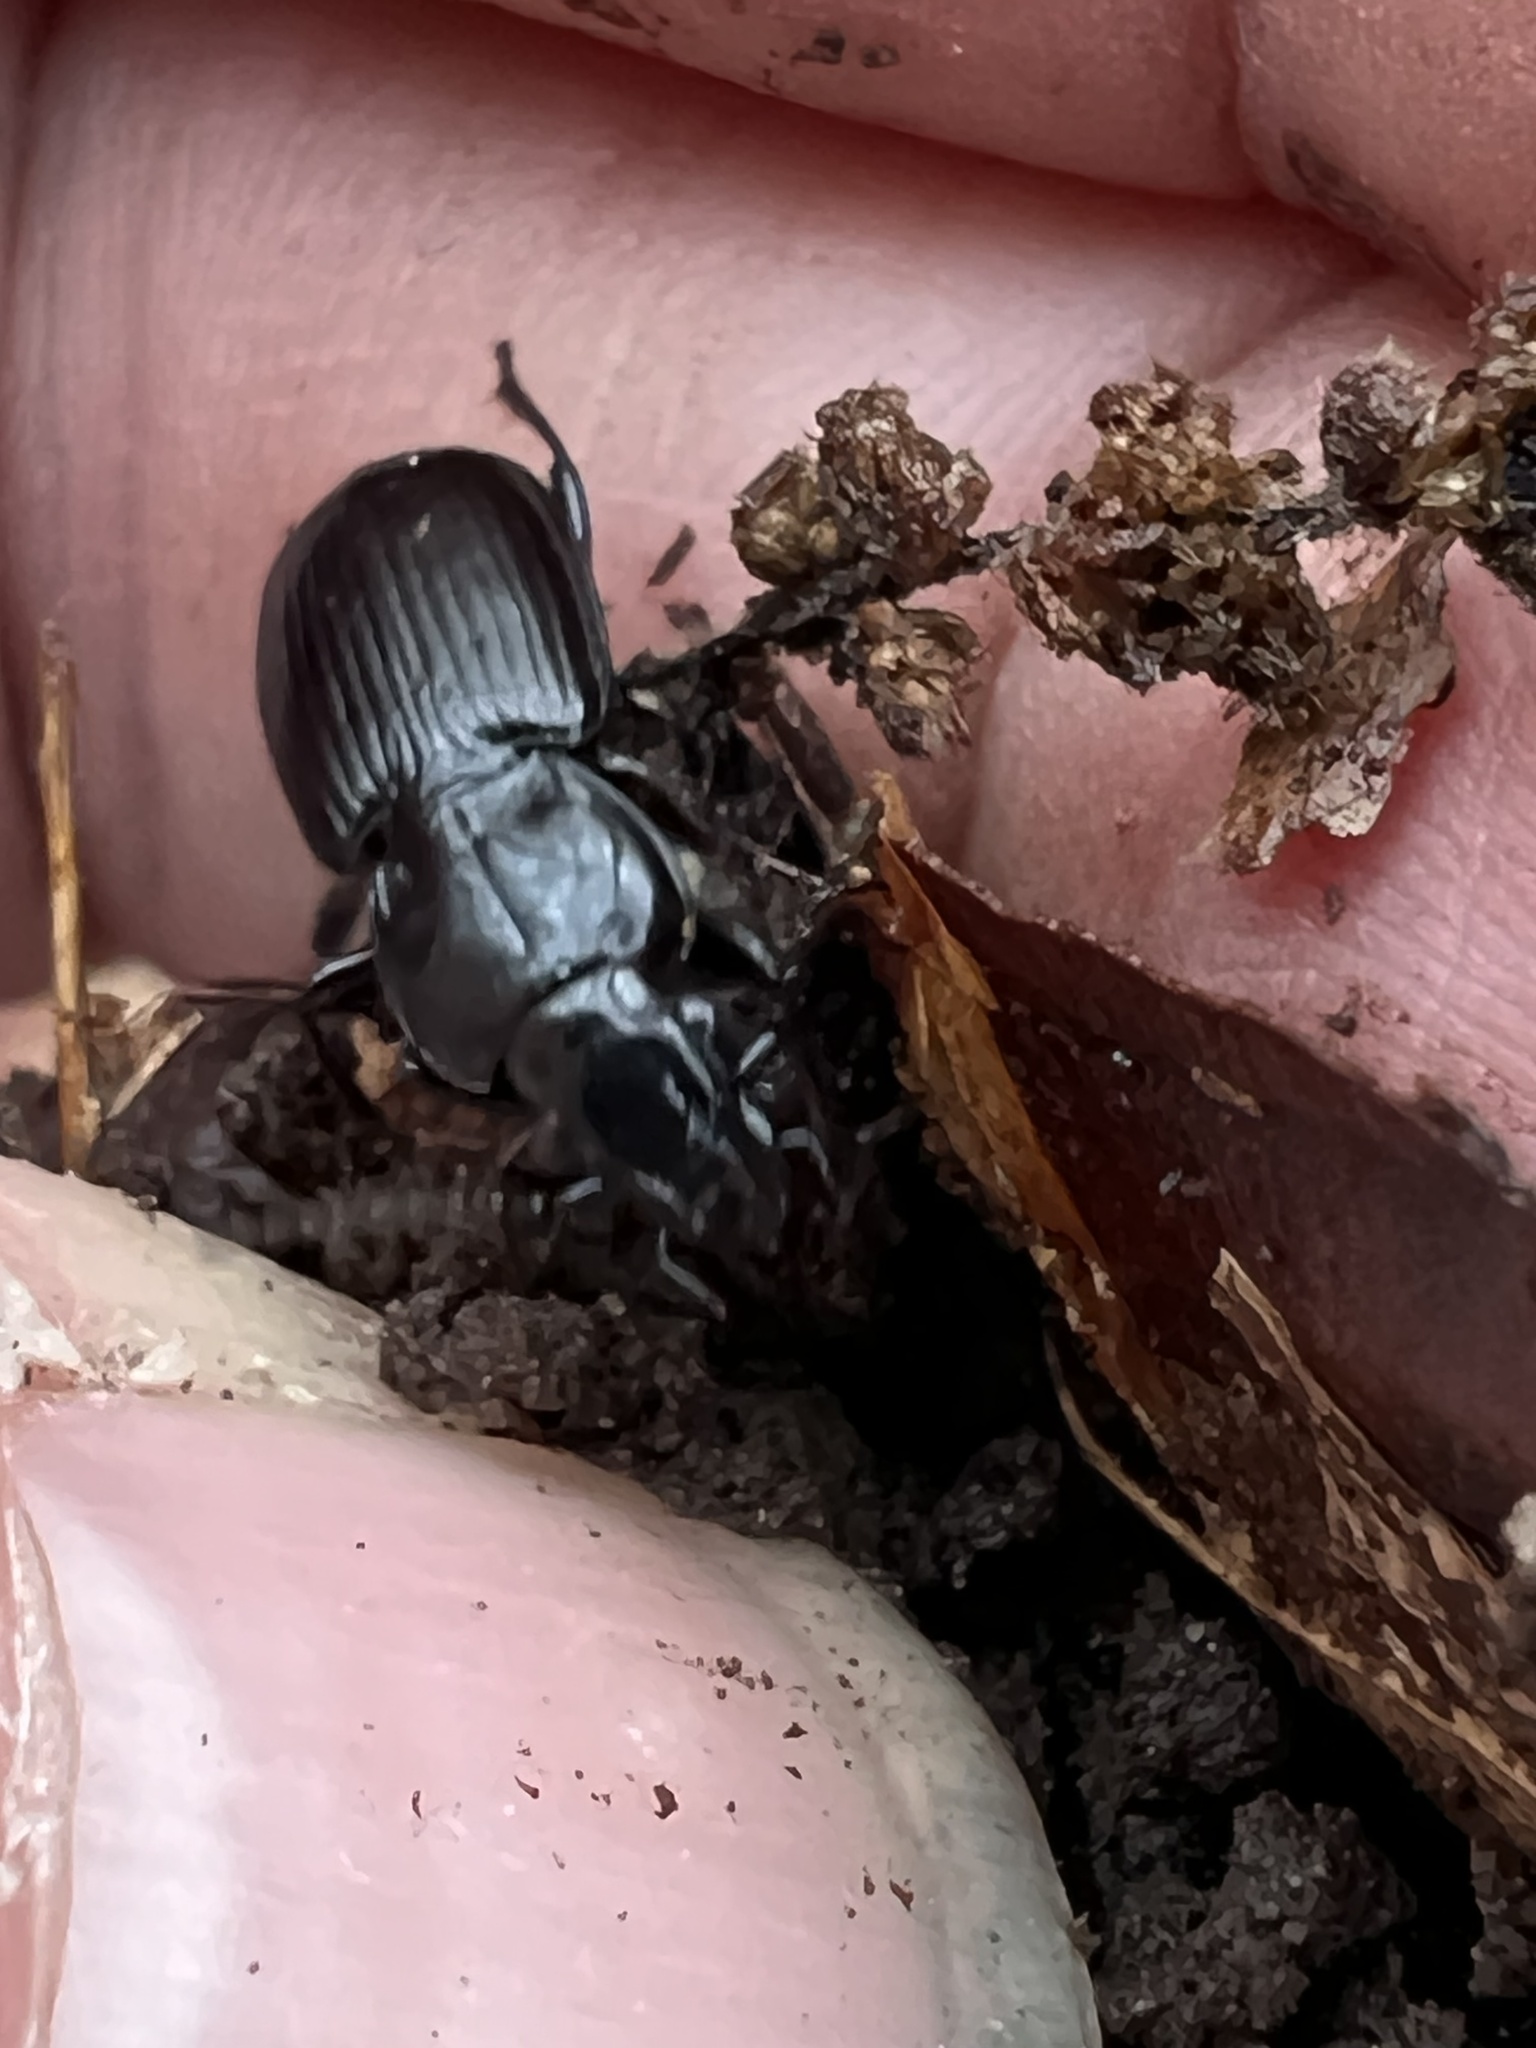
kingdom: Animalia
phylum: Arthropoda
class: Insecta
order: Coleoptera
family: Carabidae
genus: Pterostichus
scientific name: Pterostichus mutus
